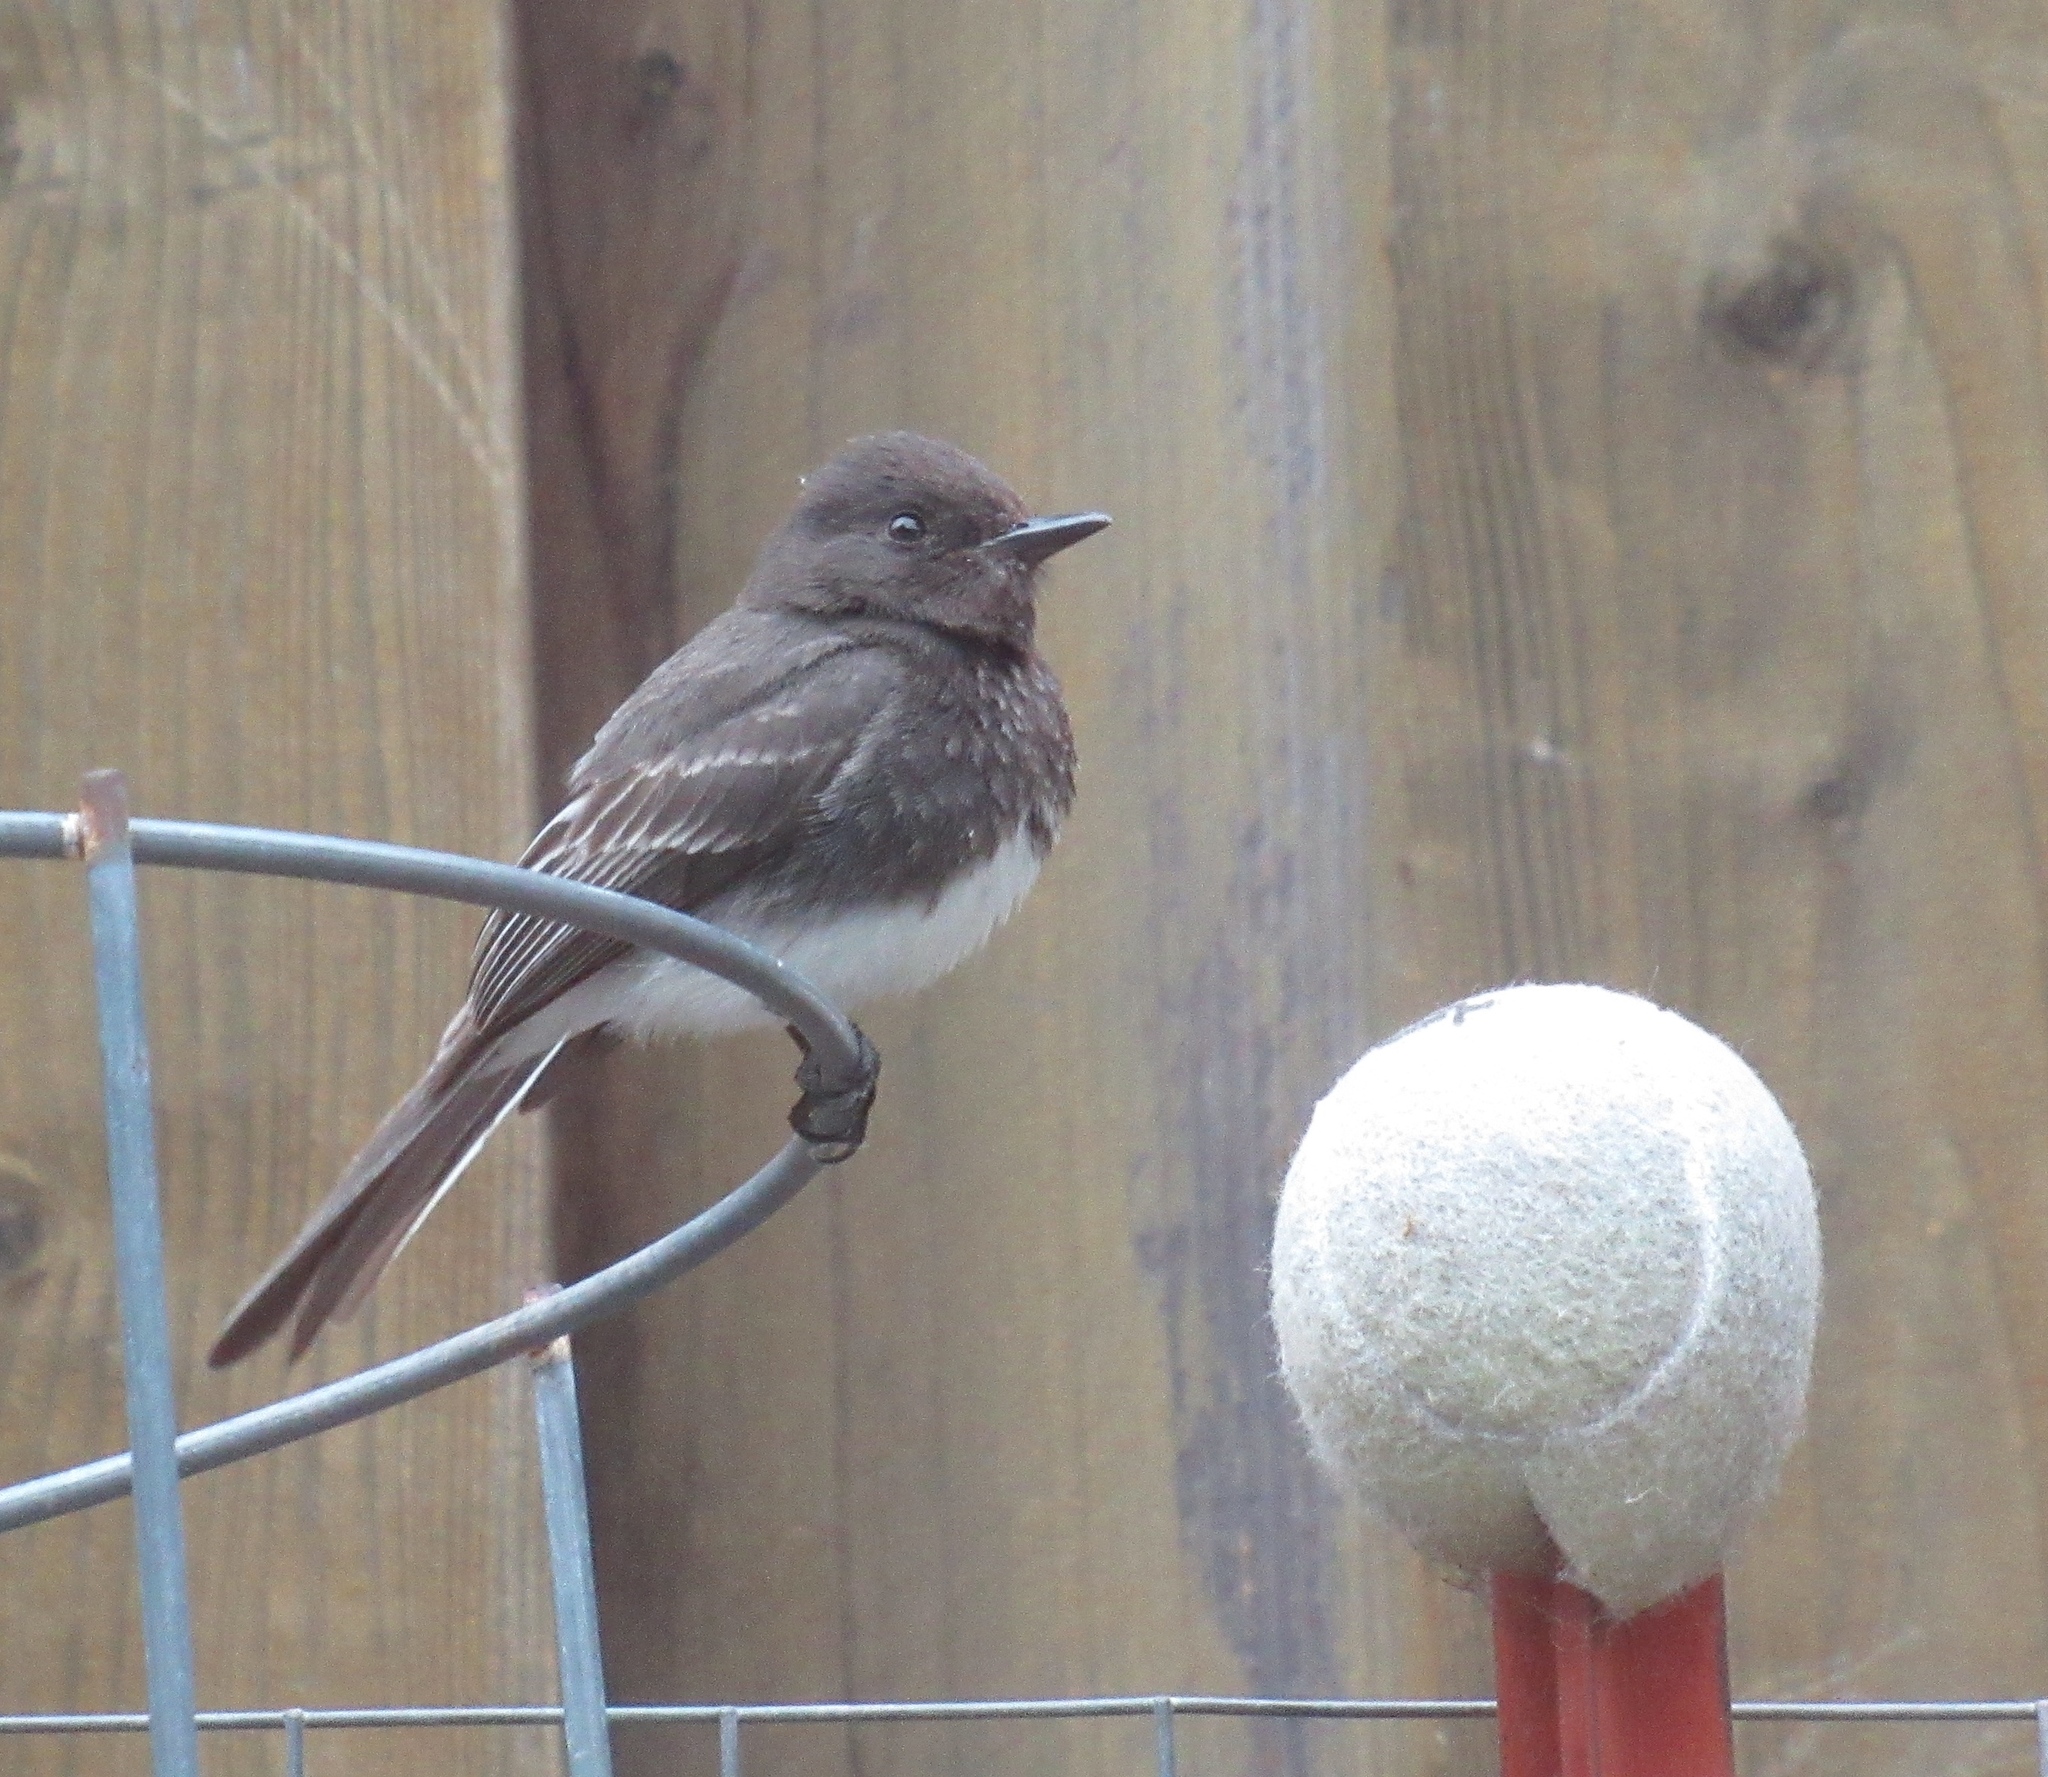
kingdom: Animalia
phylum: Chordata
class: Aves
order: Passeriformes
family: Tyrannidae
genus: Sayornis
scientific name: Sayornis nigricans
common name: Black phoebe
